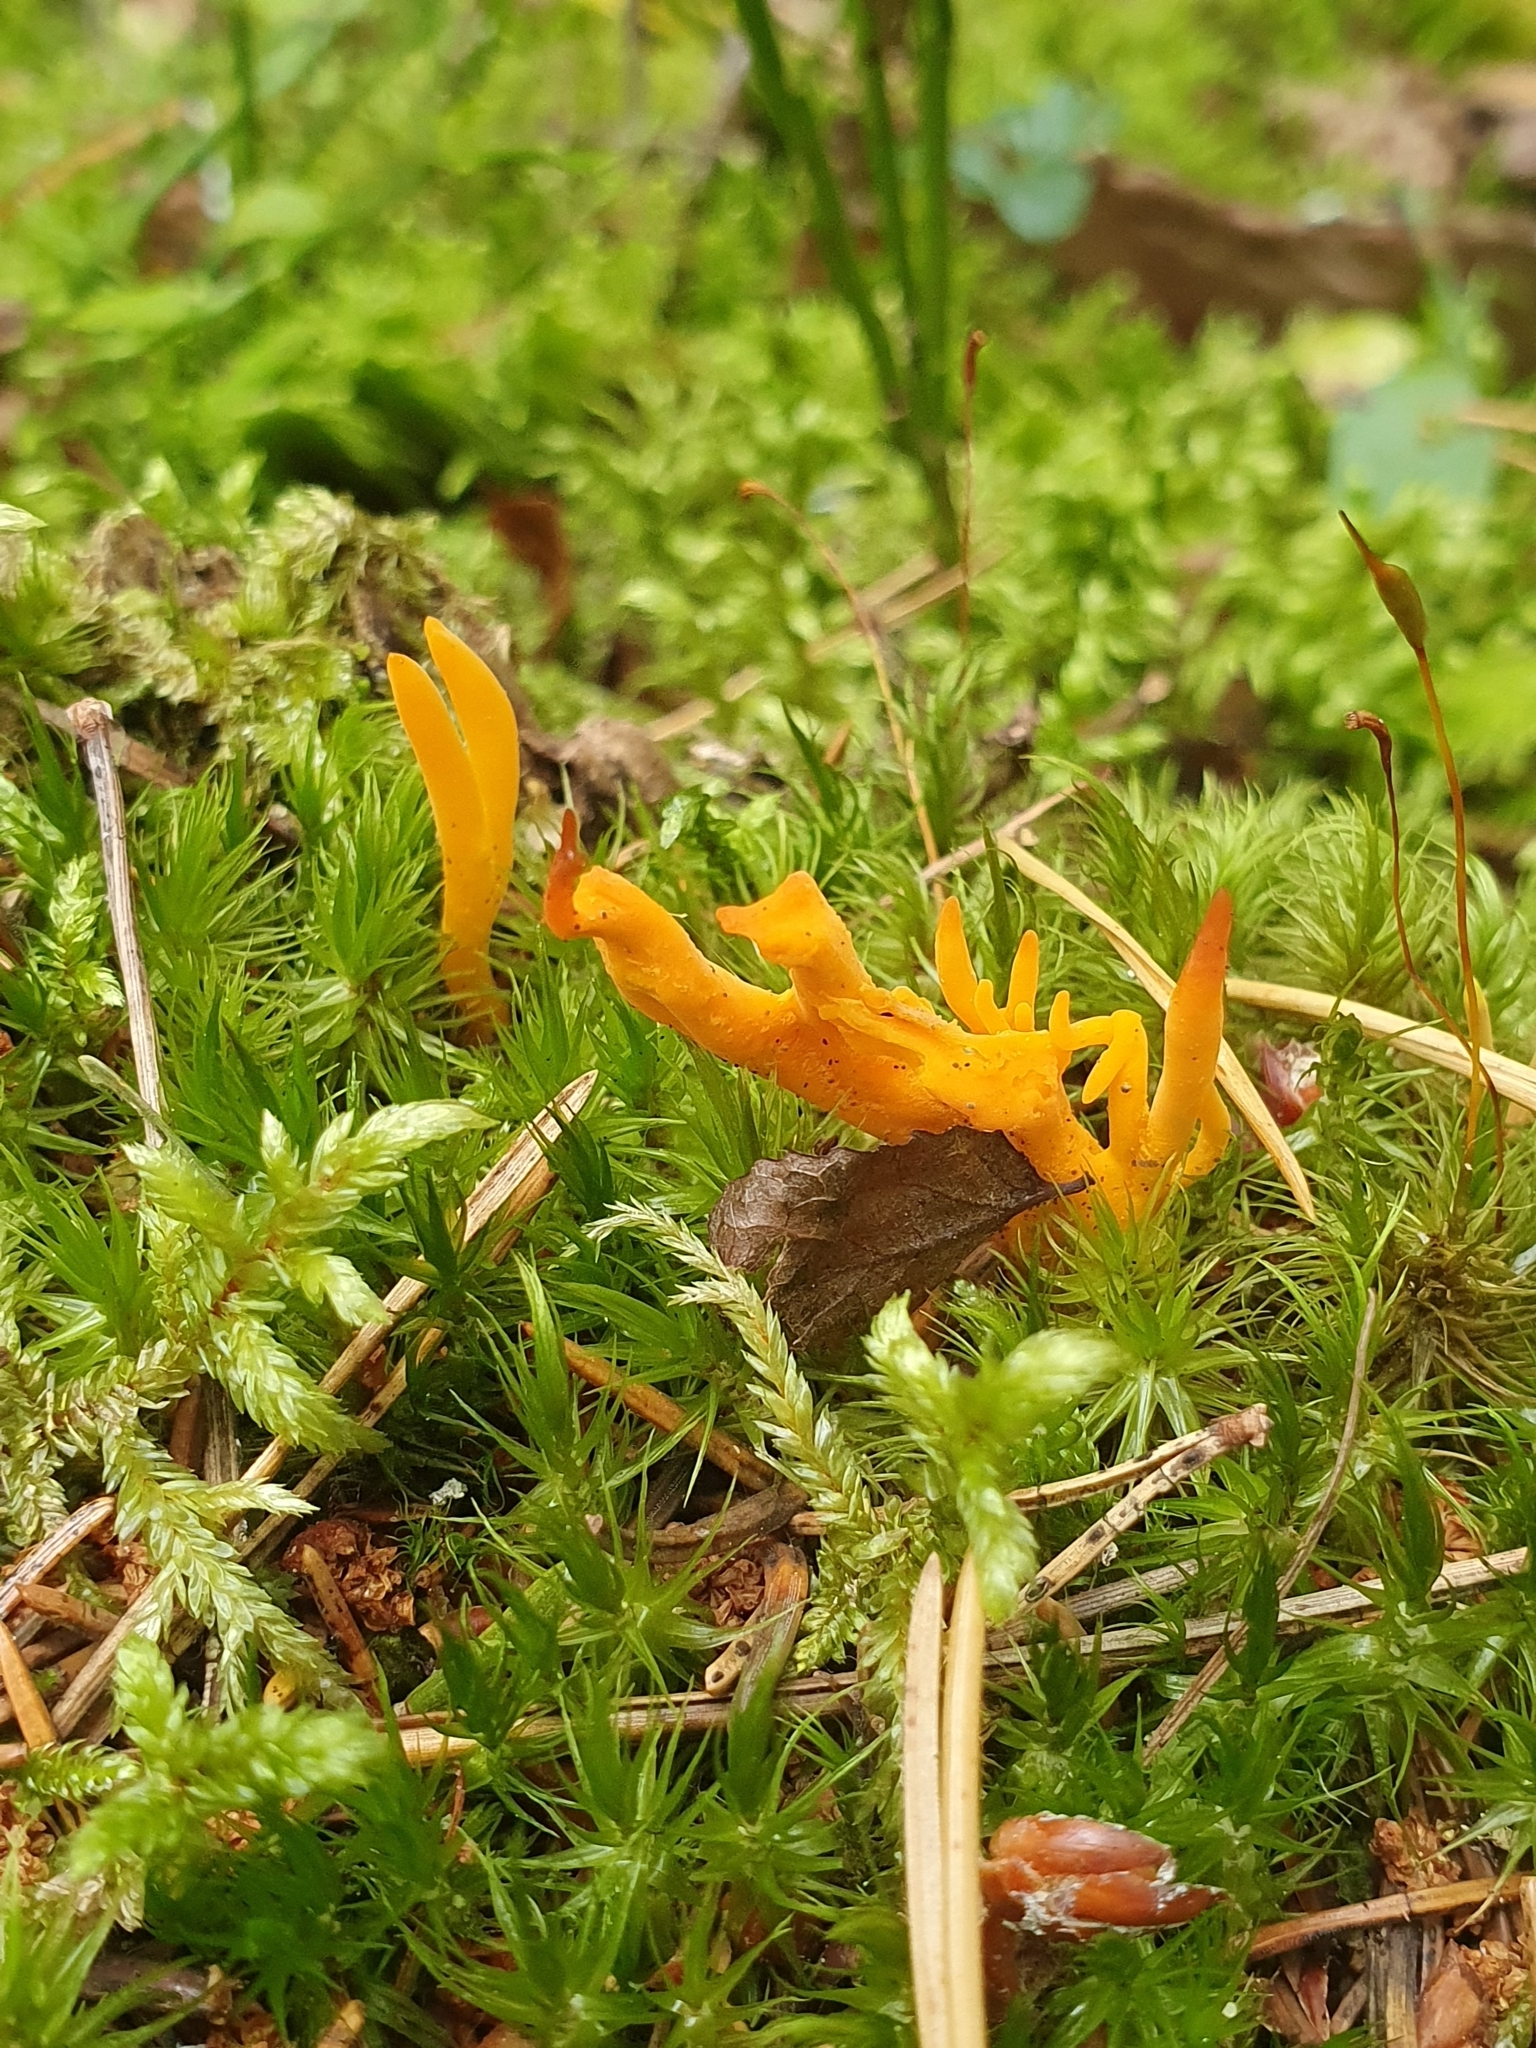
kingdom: Fungi
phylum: Basidiomycota
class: Dacrymycetes
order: Dacrymycetales
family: Dacrymycetaceae
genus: Calocera
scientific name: Calocera viscosa
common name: Yellow stagshorn
